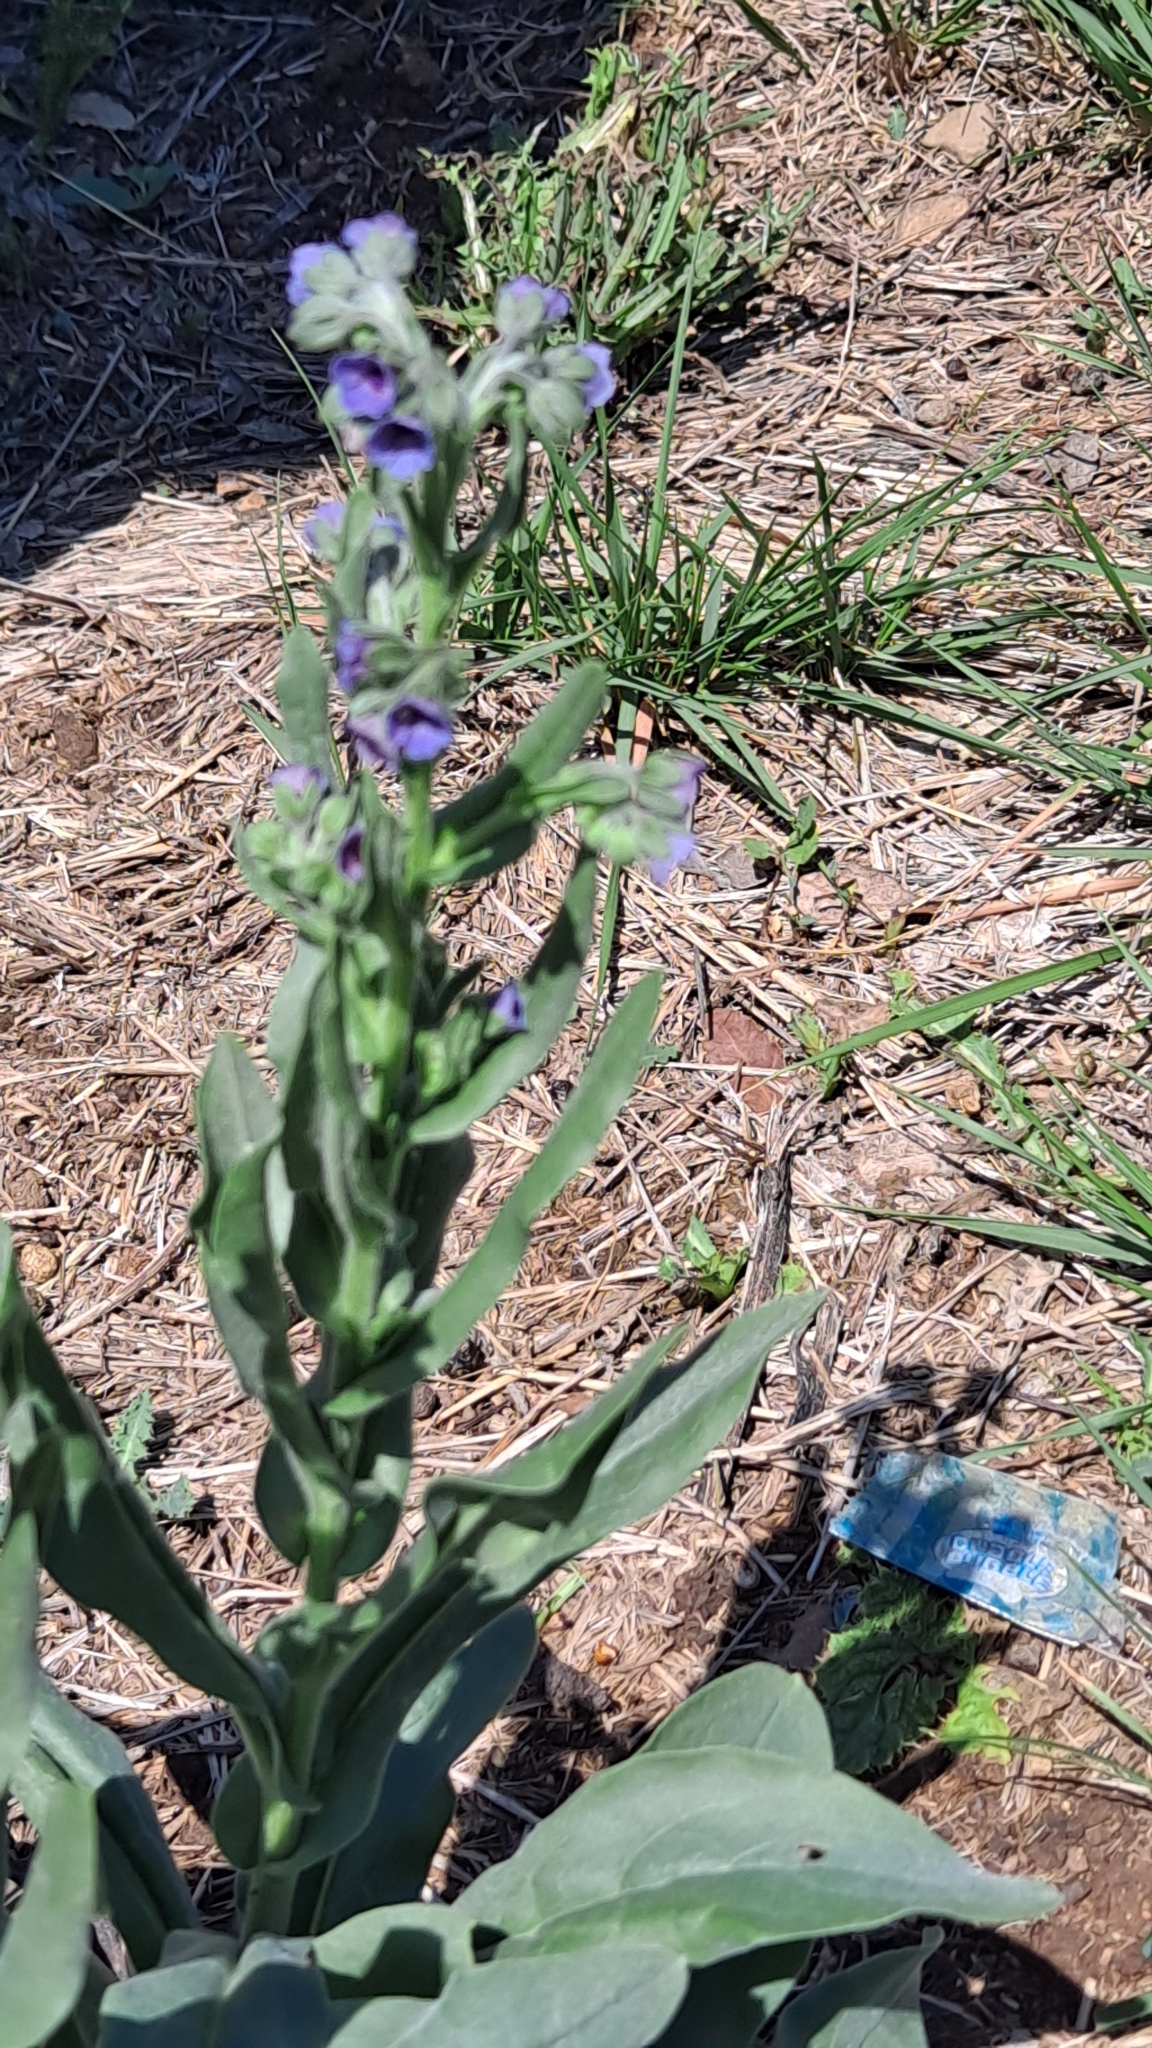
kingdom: Plantae
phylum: Tracheophyta
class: Magnoliopsida
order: Boraginales
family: Boraginaceae
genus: Cynoglossum
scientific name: Cynoglossum creticum
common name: Blue hound's tongue
